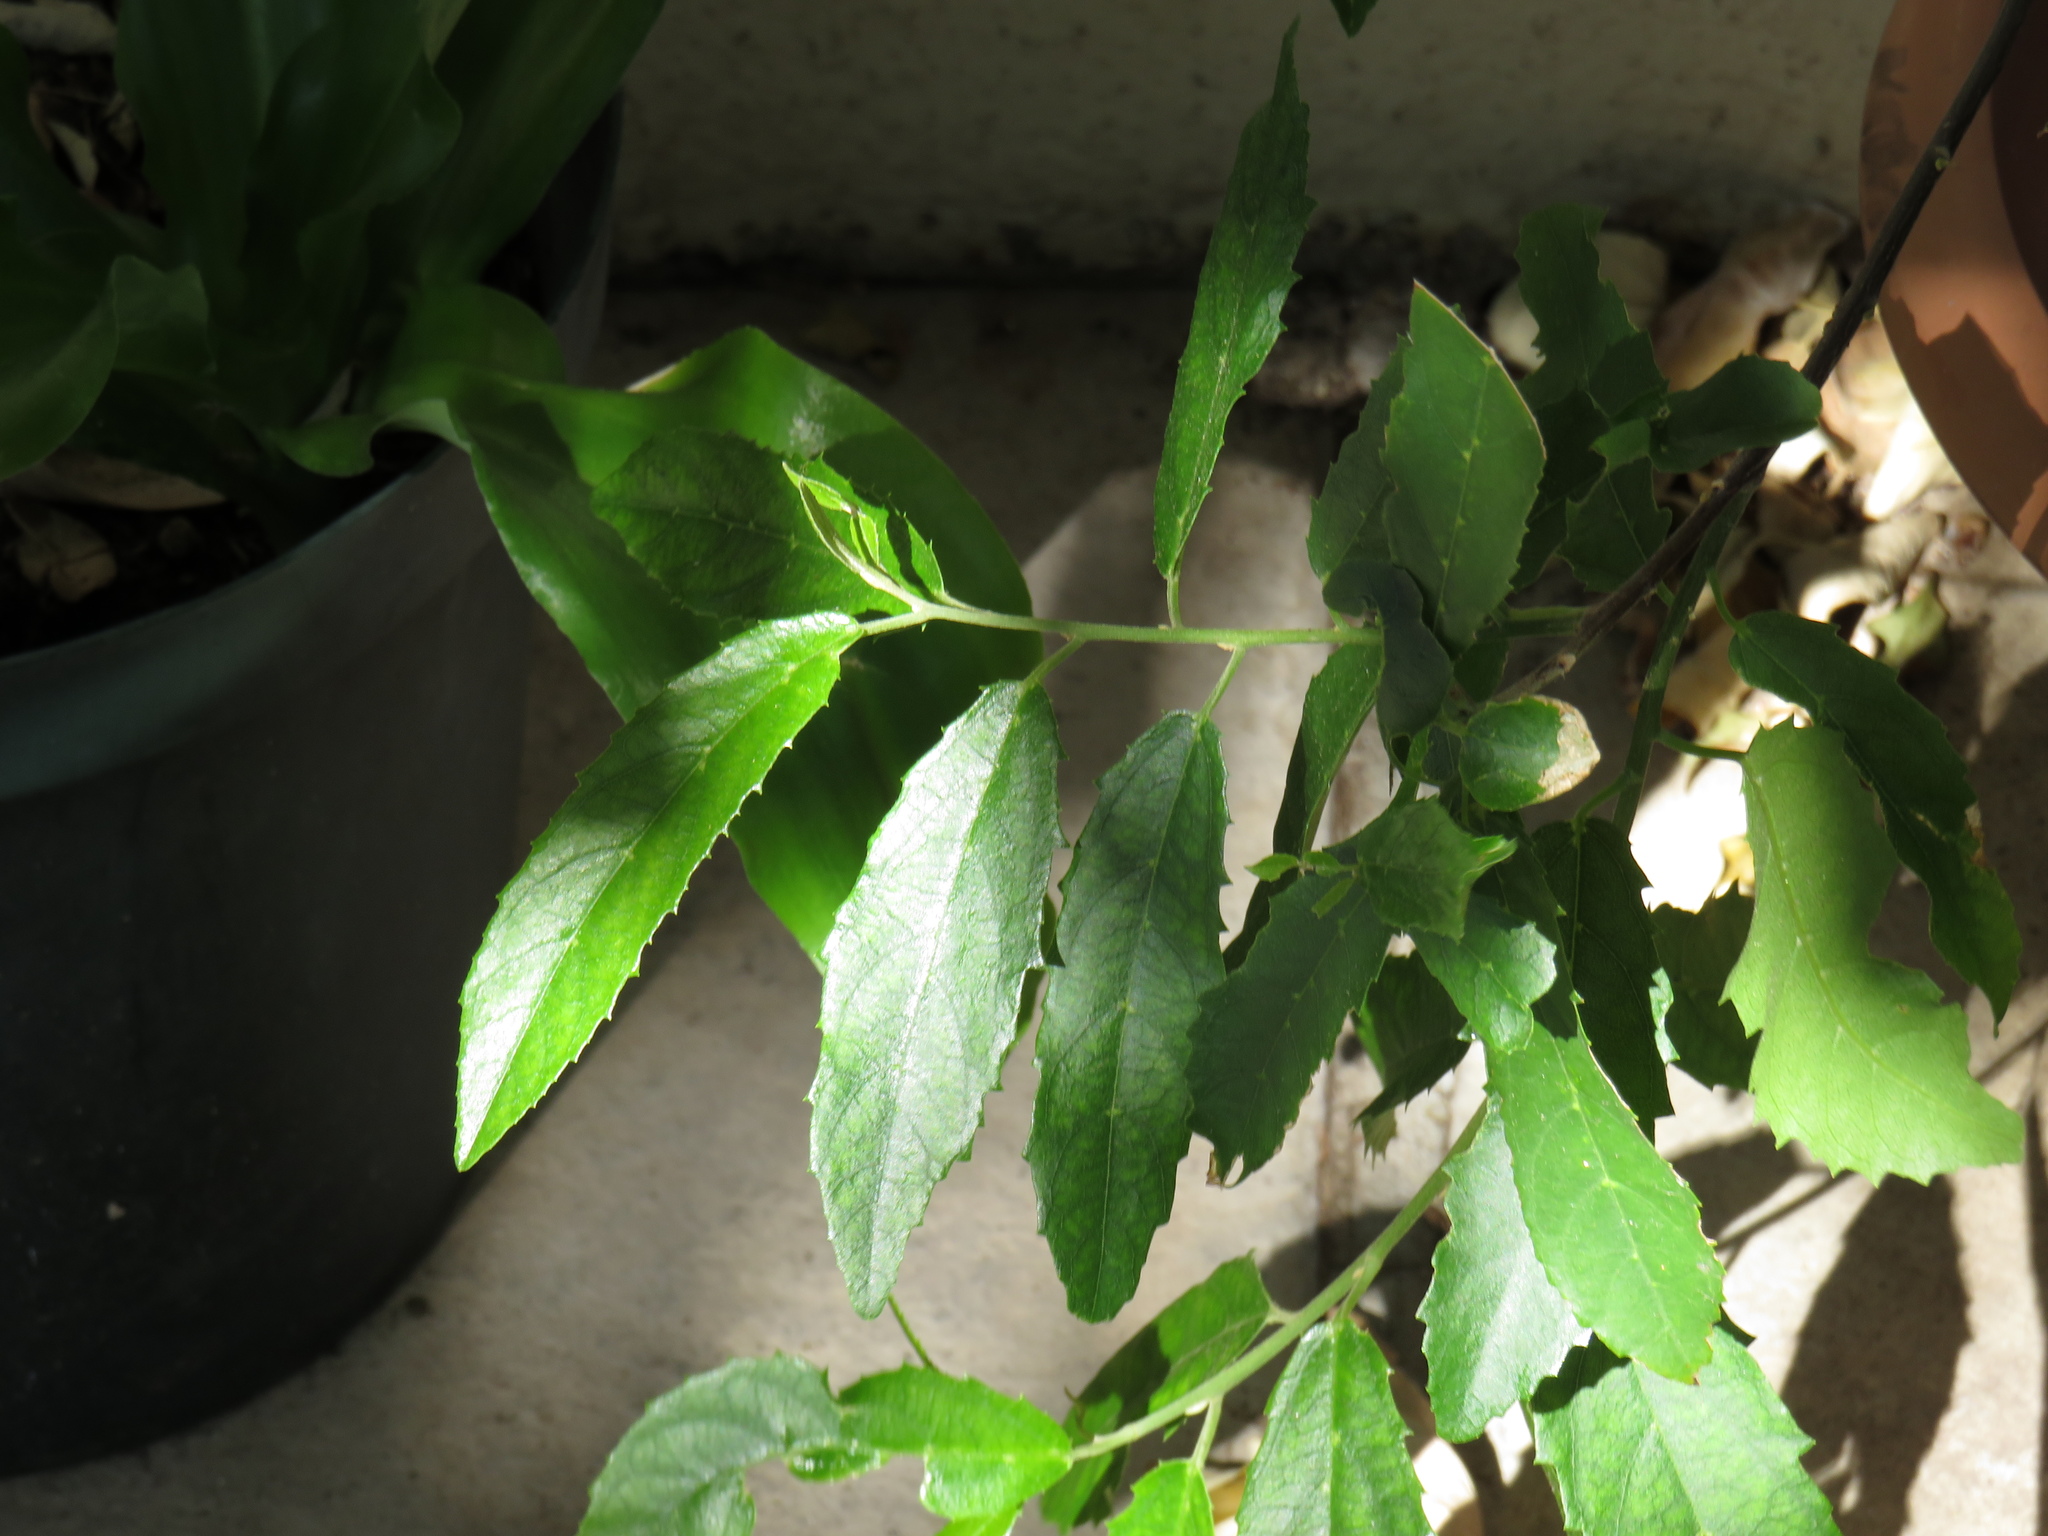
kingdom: Plantae
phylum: Tracheophyta
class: Magnoliopsida
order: Malpighiales
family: Achariaceae
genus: Kiggelaria
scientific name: Kiggelaria africana
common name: Wild peach
